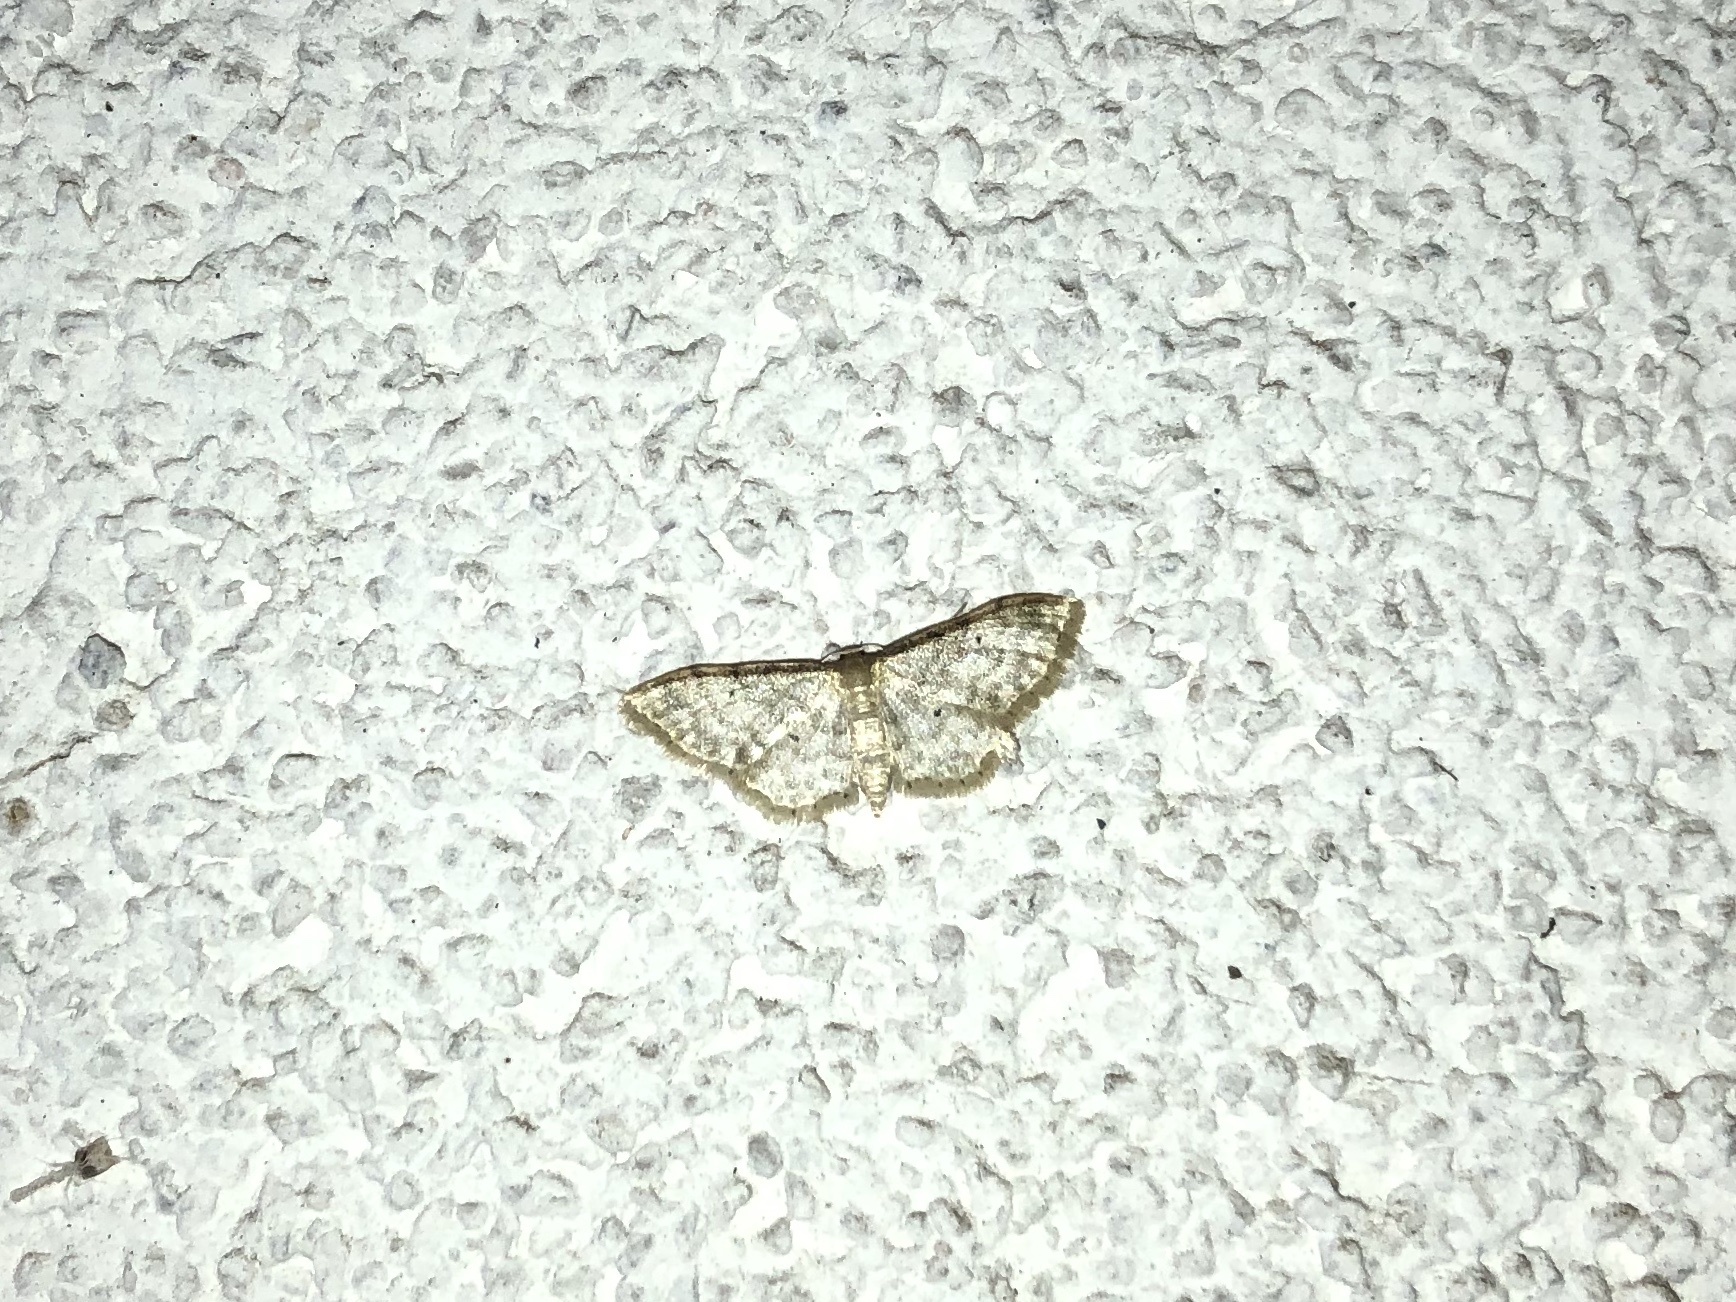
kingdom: Animalia
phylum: Arthropoda
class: Insecta
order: Lepidoptera
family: Geometridae
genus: Idaea
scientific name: Idaea fuscovenosa
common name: Dwarf cream wave
